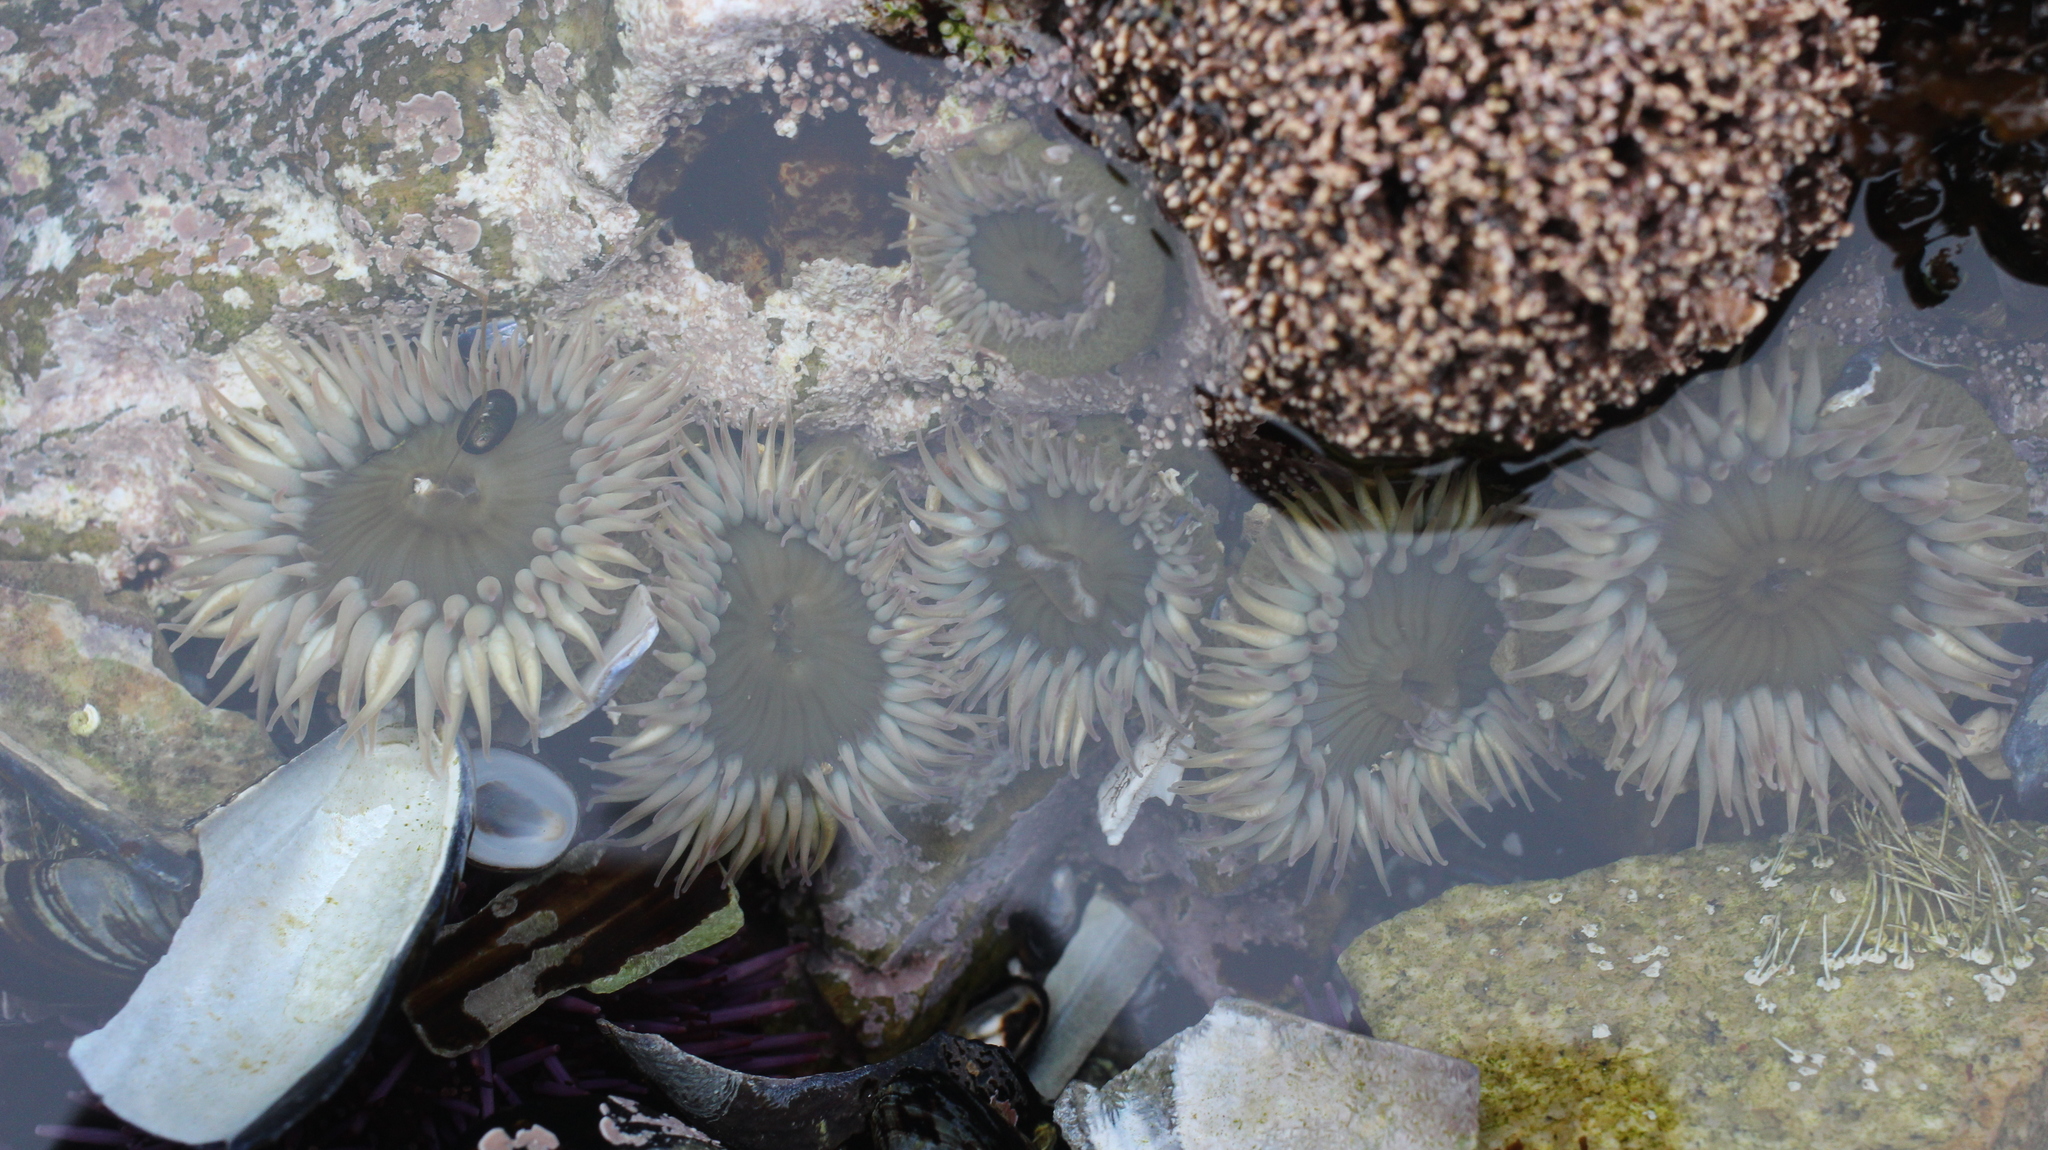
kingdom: Animalia
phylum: Cnidaria
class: Anthozoa
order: Actiniaria
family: Actiniidae
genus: Anthopleura
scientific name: Anthopleura elegantissima
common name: Clonal anemone
